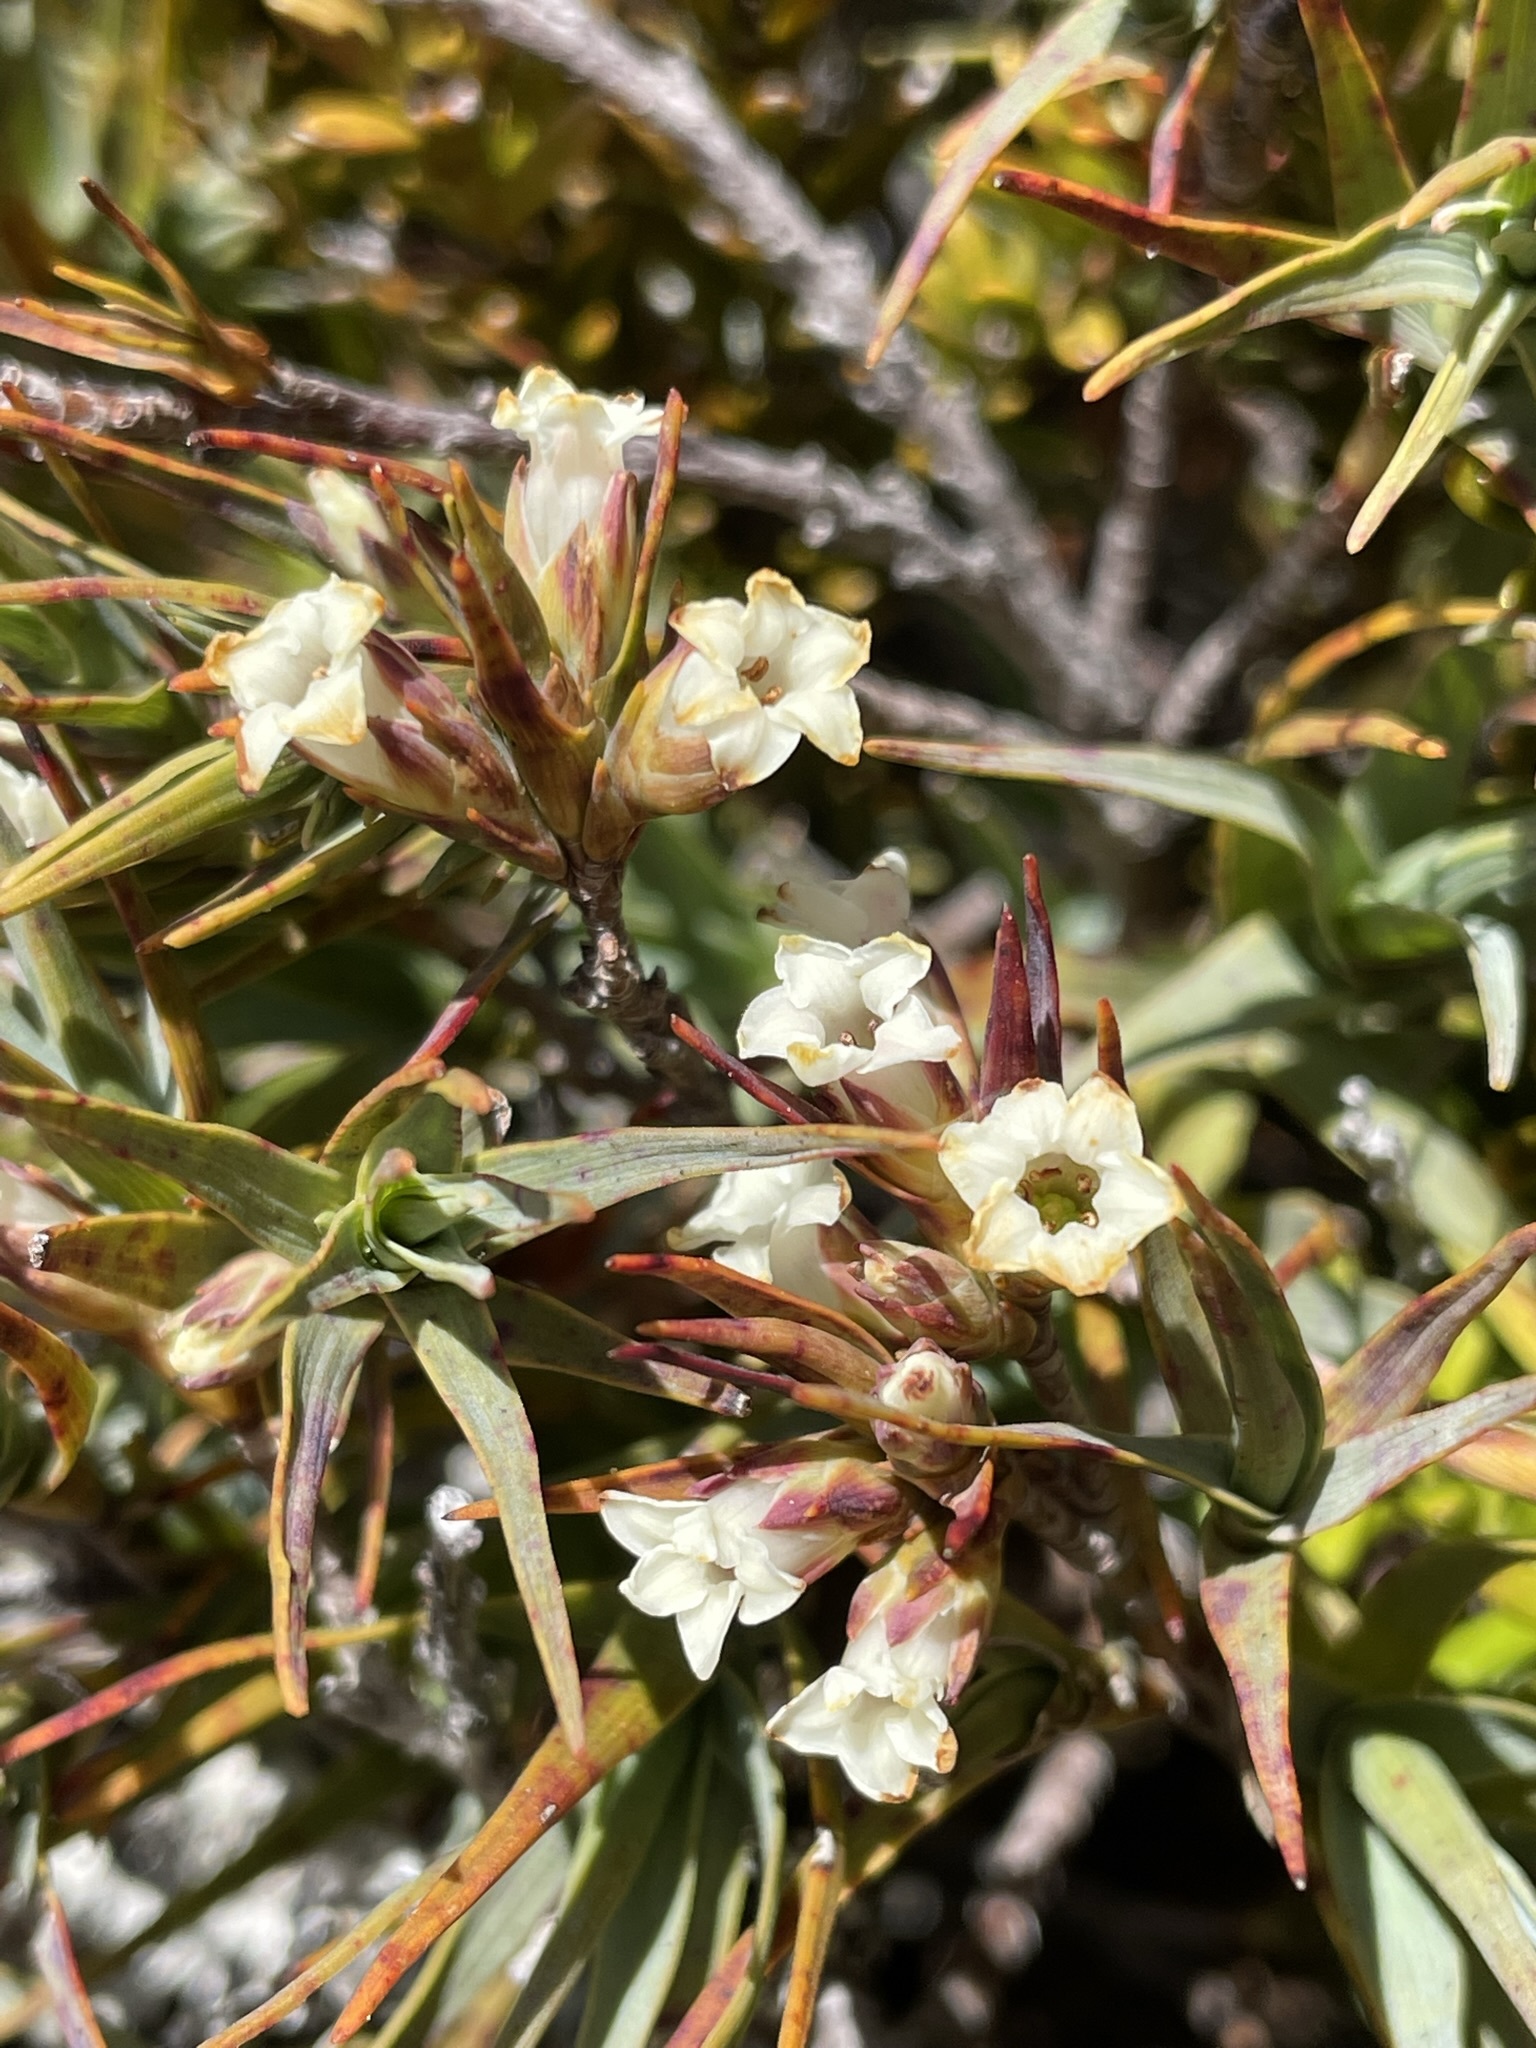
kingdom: Plantae
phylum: Tracheophyta
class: Magnoliopsida
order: Ericales
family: Ericaceae
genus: Dracophyllum
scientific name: Dracophyllum rosmarinifolium
